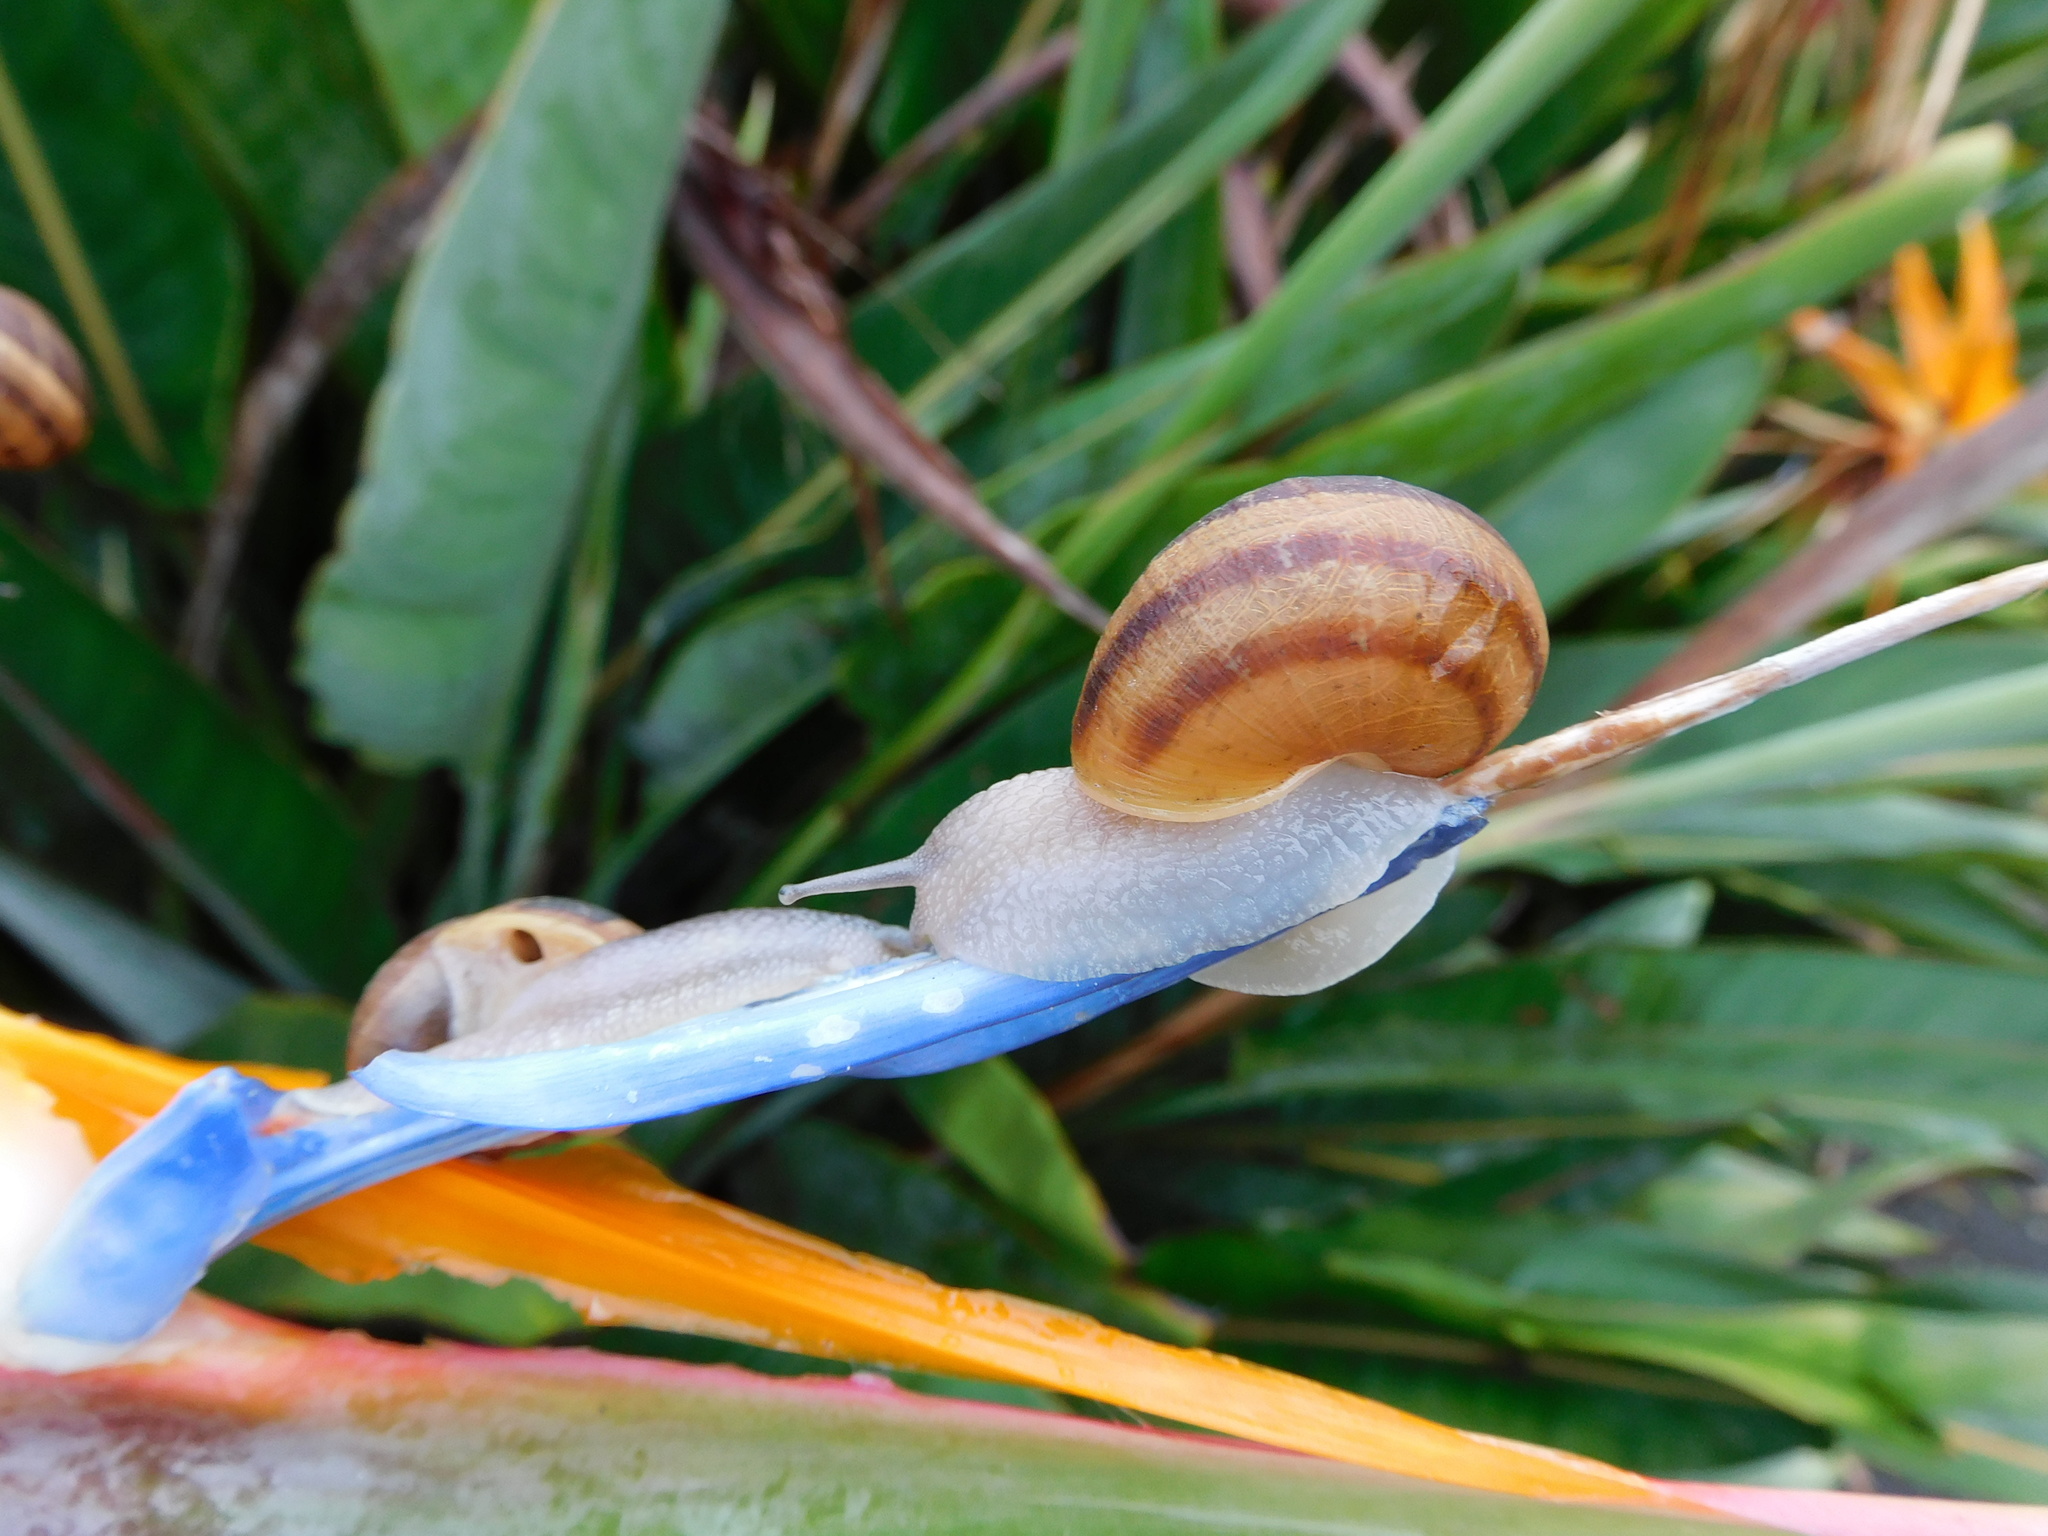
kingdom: Animalia
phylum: Mollusca
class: Gastropoda
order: Stylommatophora
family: Helicidae
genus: Cornu
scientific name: Cornu aspersum
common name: Brown garden snail
